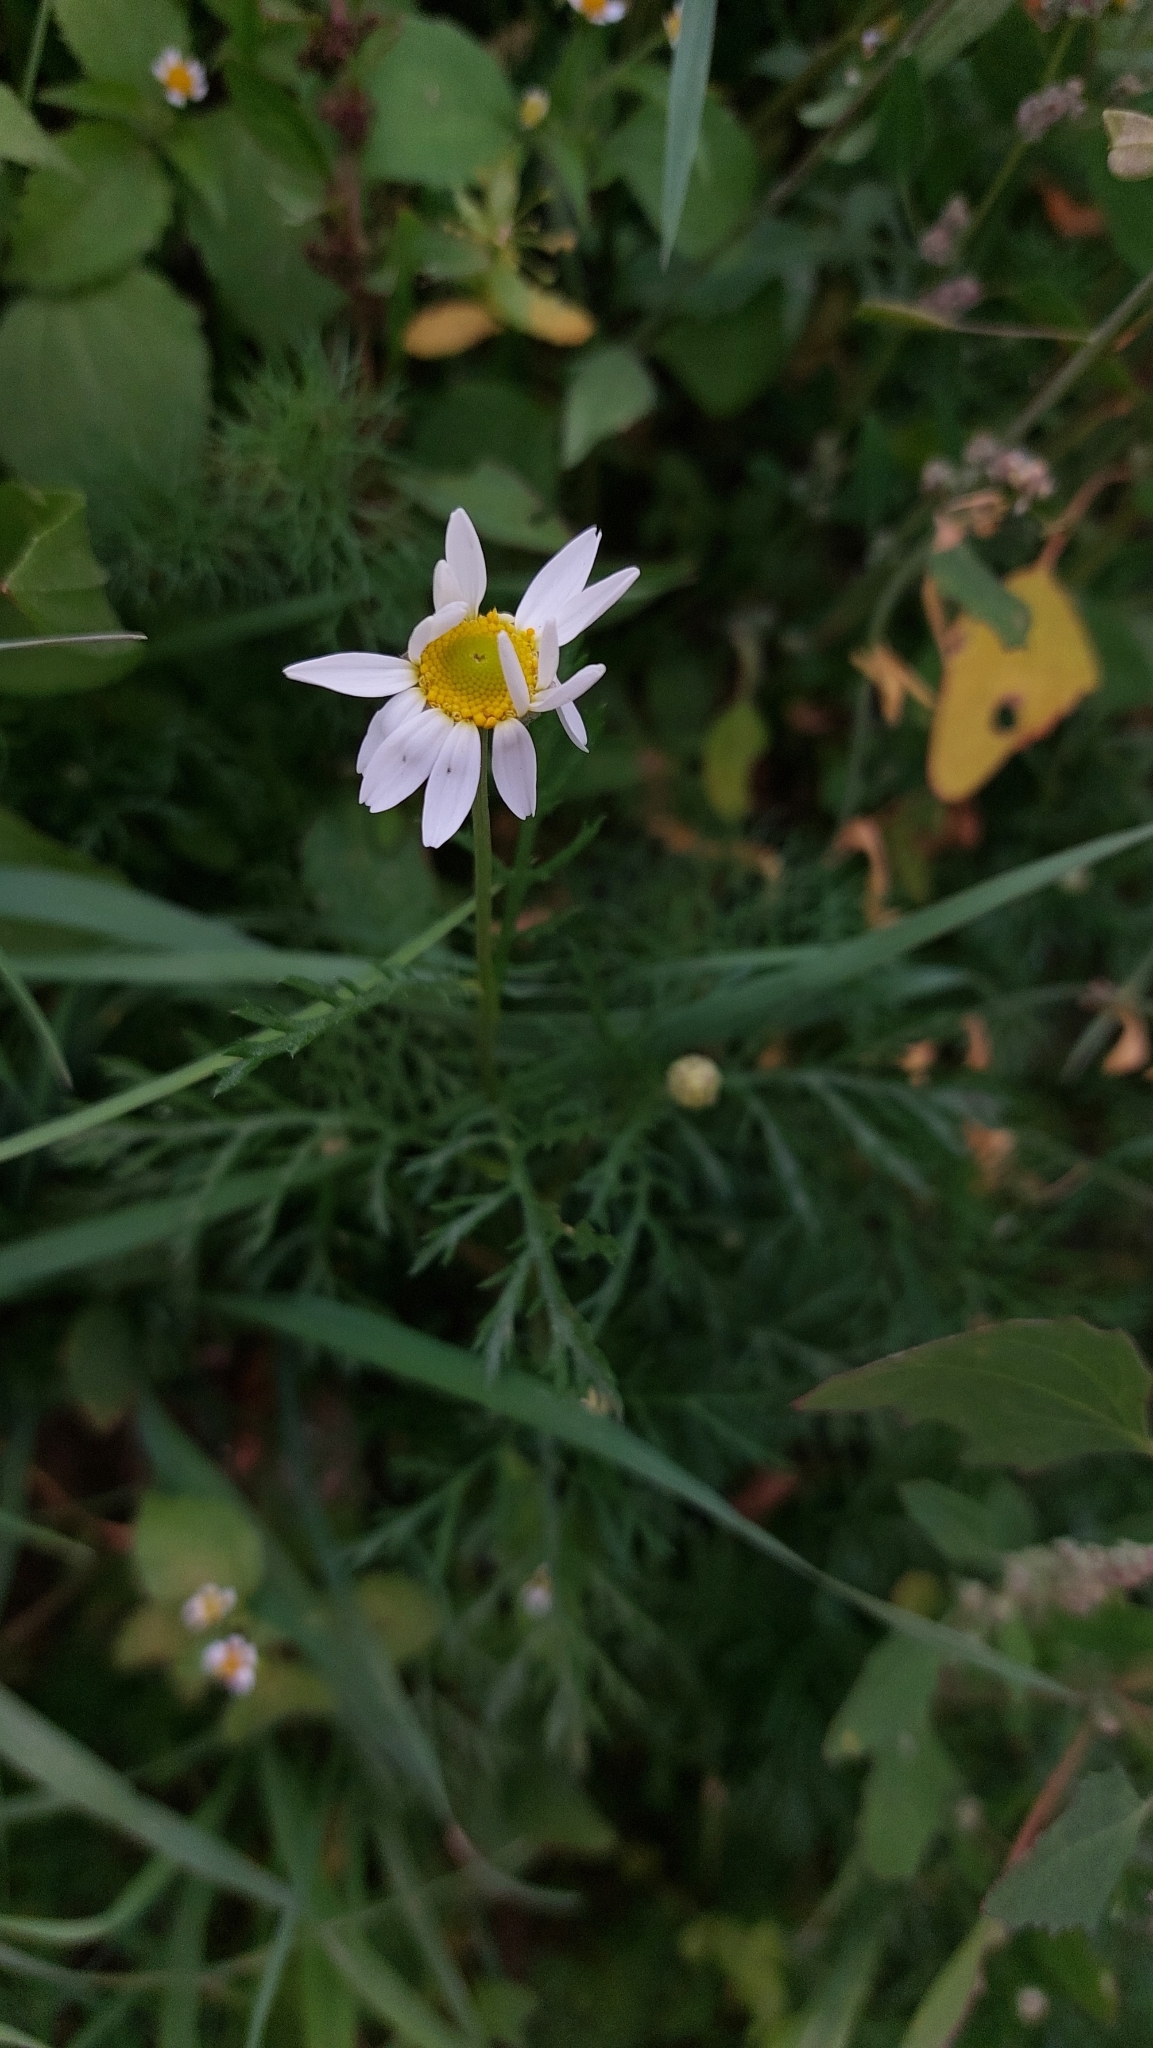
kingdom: Plantae
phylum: Tracheophyta
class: Magnoliopsida
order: Asterales
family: Asteraceae
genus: Tripleurospermum
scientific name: Tripleurospermum inodorum
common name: Scentless mayweed
